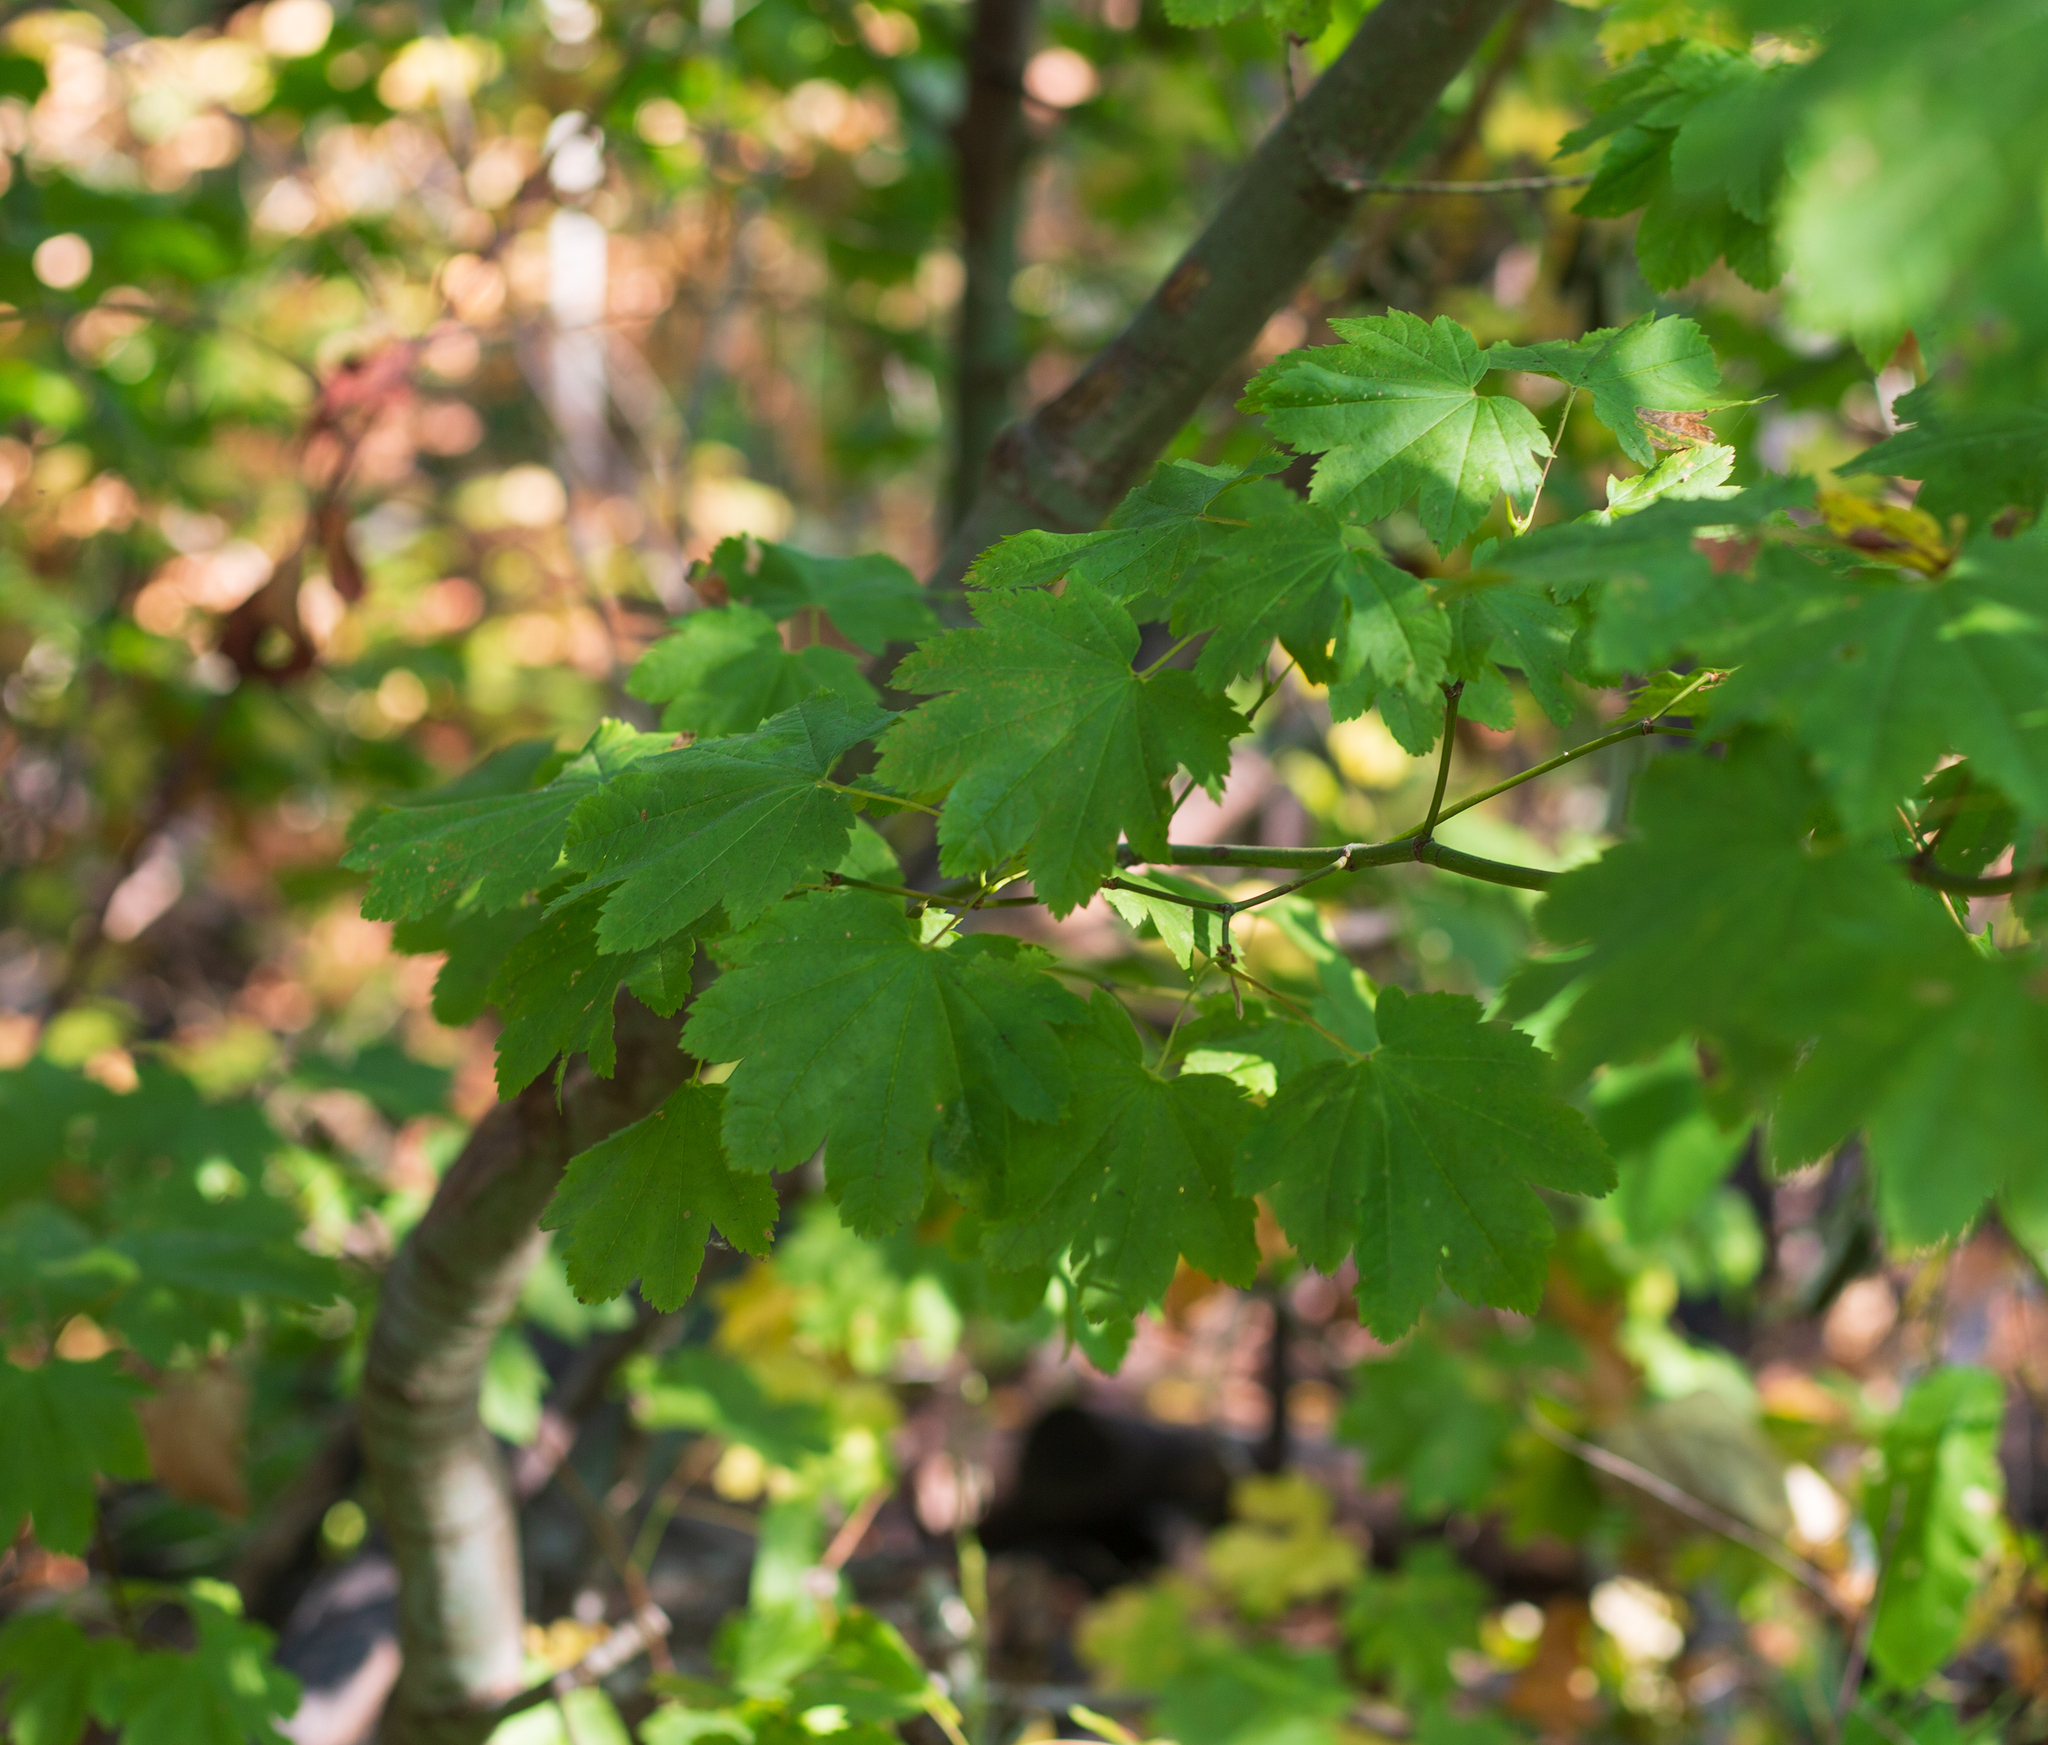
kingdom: Plantae
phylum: Tracheophyta
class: Magnoliopsida
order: Sapindales
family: Sapindaceae
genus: Acer
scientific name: Acer circinatum
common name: Vine maple
